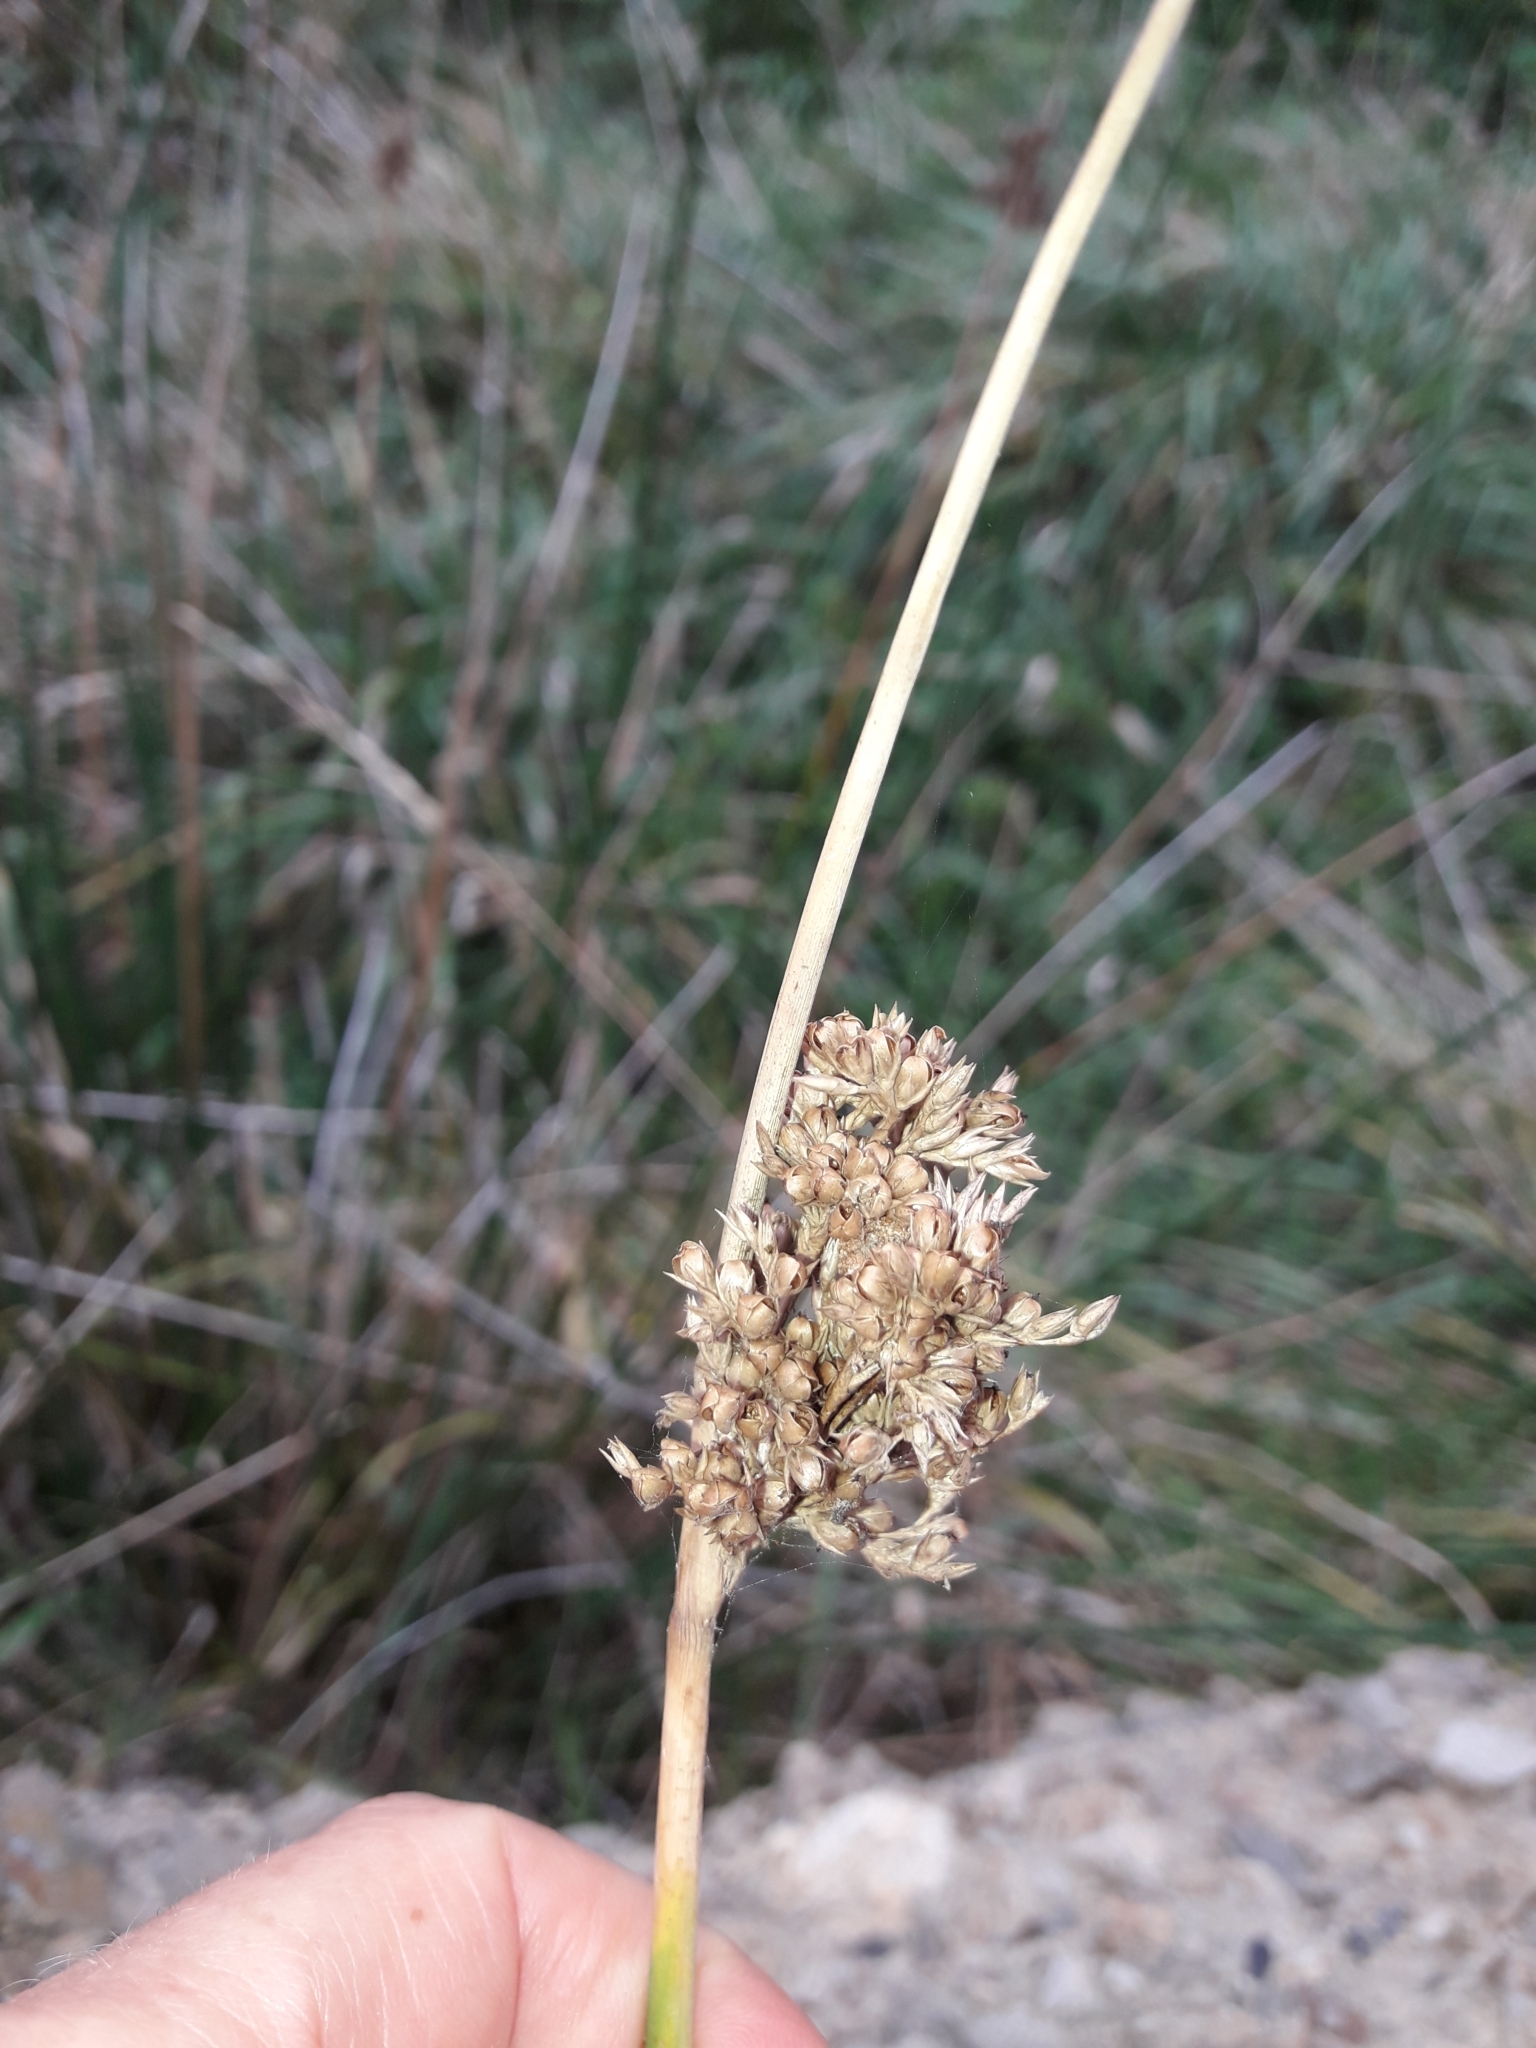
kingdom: Plantae
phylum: Tracheophyta
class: Liliopsida
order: Poales
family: Juncaceae
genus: Juncus
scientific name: Juncus pallidus
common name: Great soft-rush
